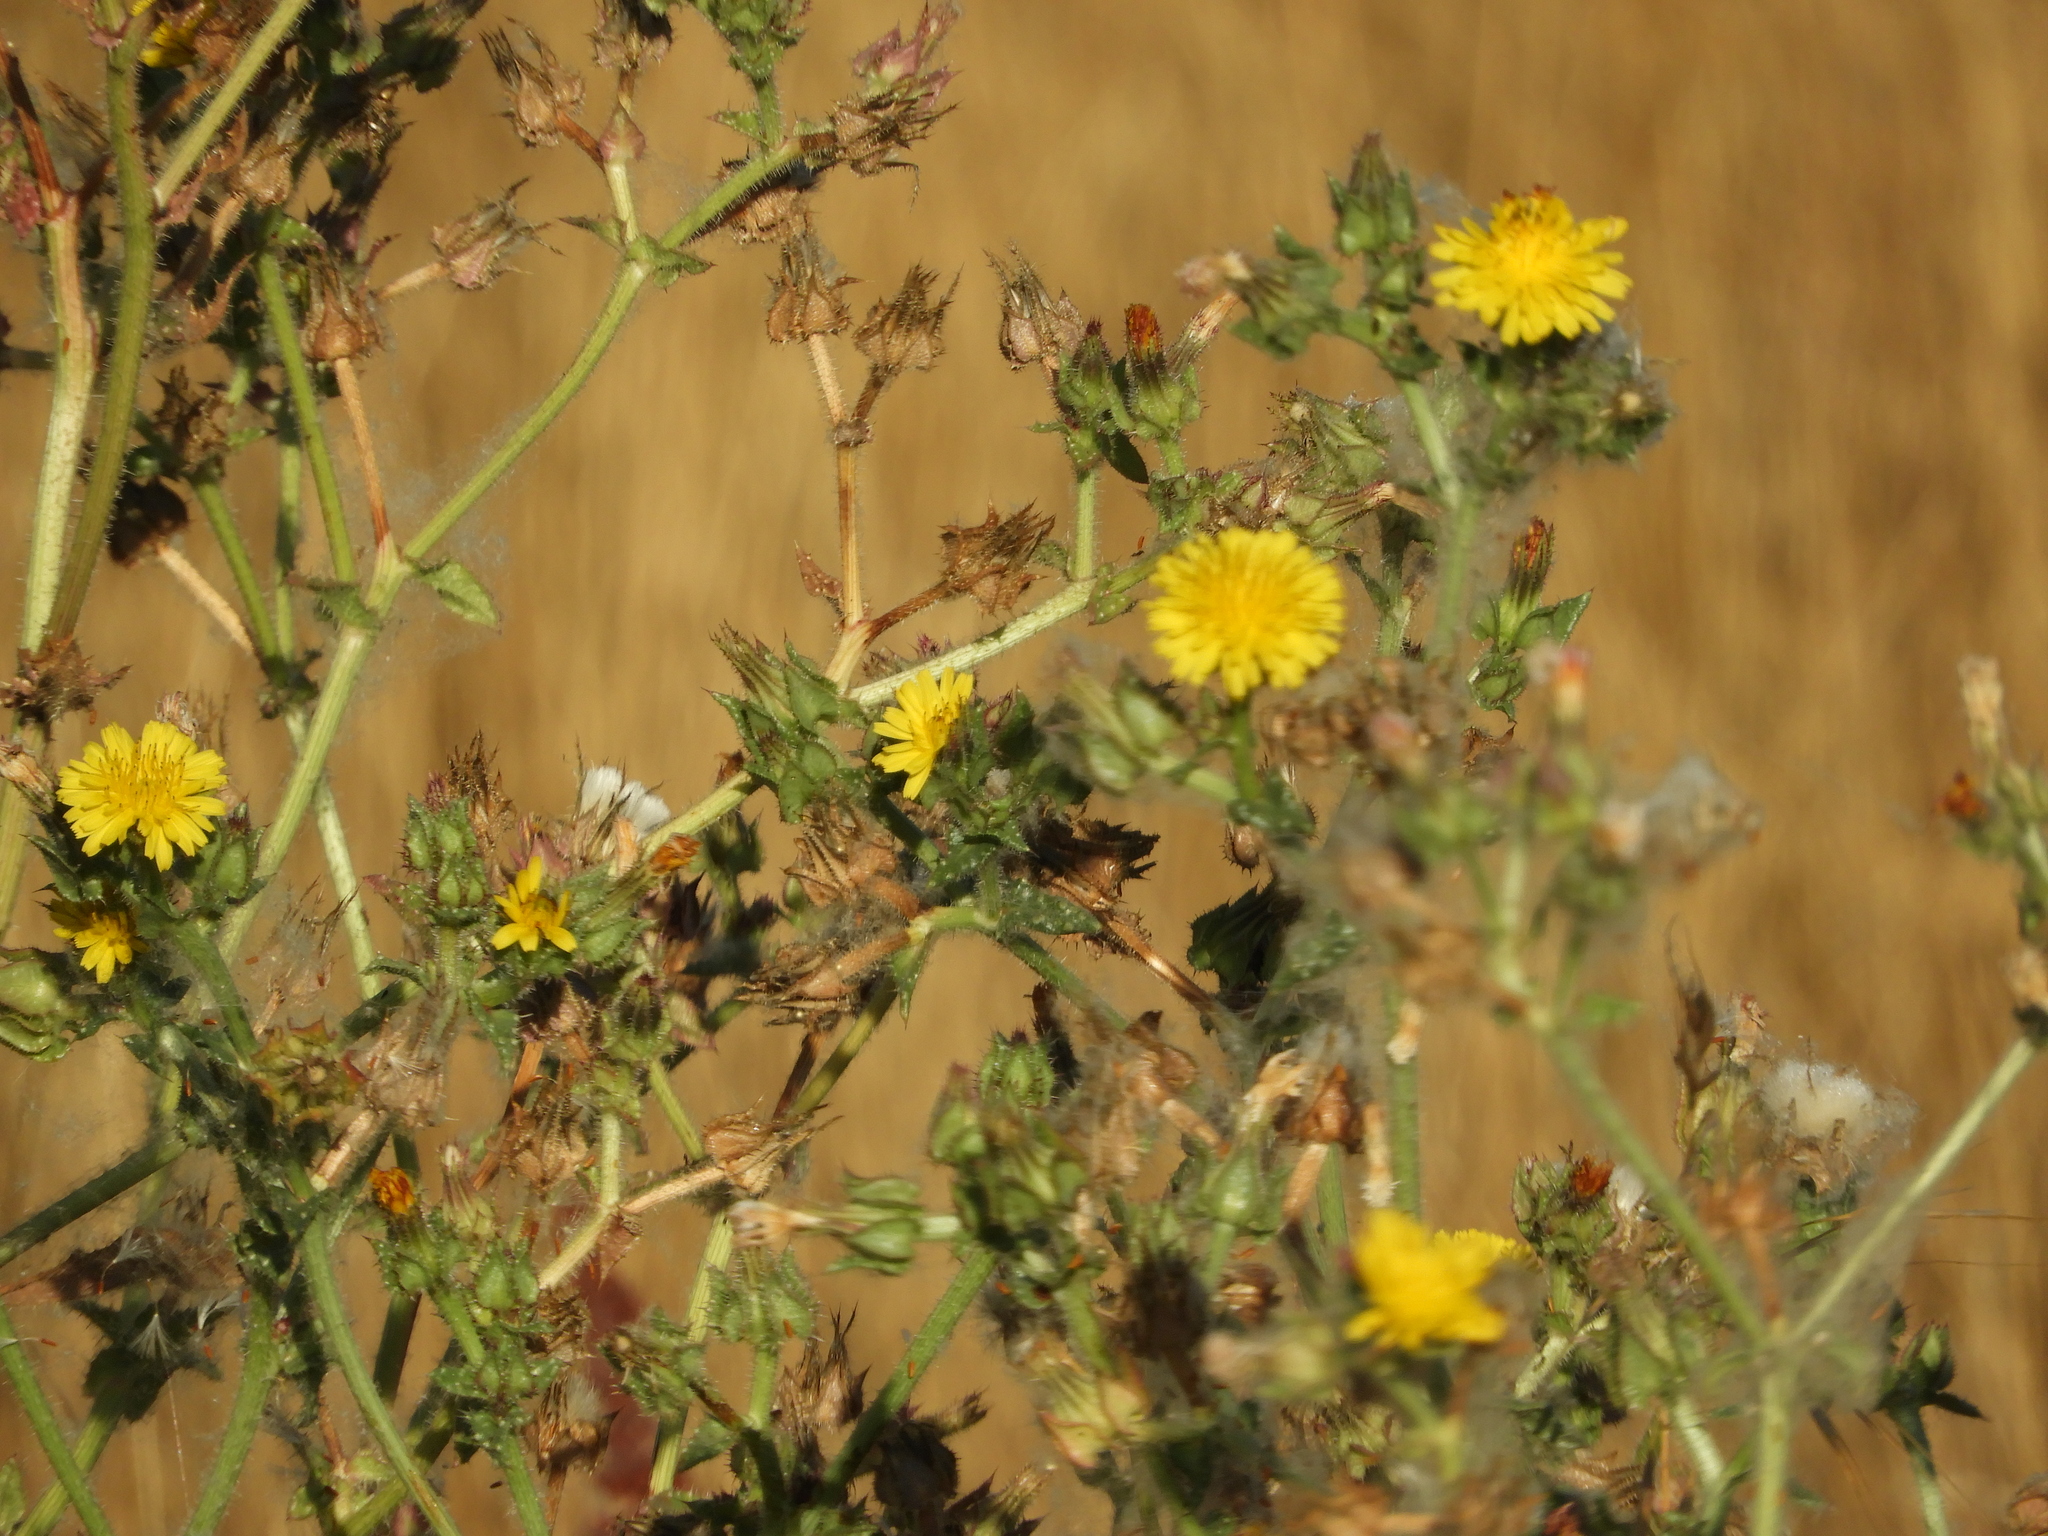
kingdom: Plantae
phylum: Tracheophyta
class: Magnoliopsida
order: Asterales
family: Asteraceae
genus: Helminthotheca
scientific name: Helminthotheca echioides
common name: Ox-tongue
